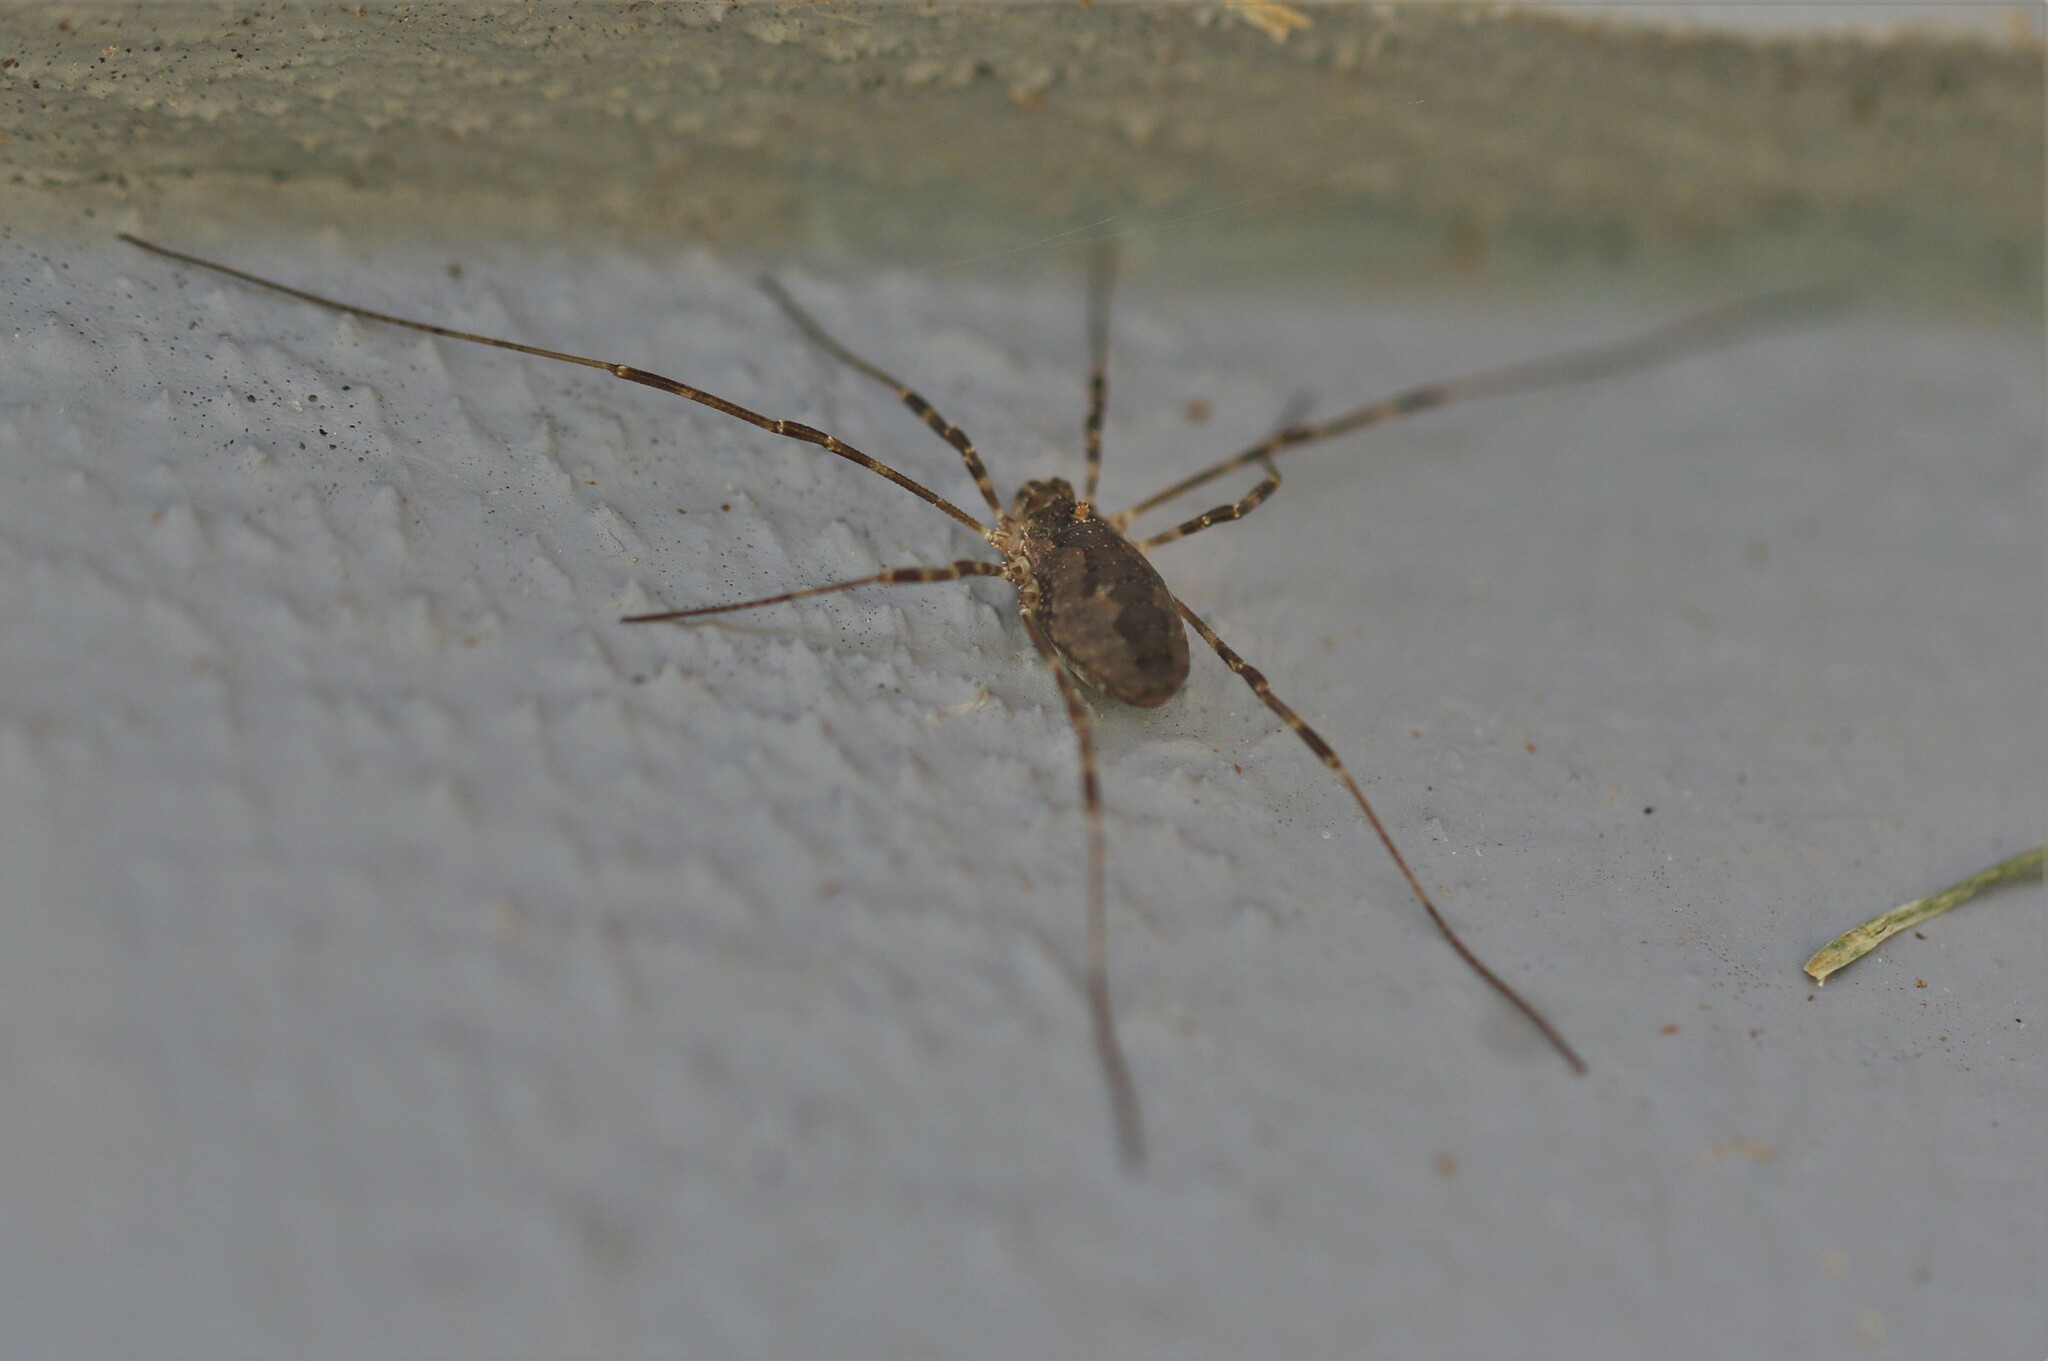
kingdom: Animalia
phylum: Arthropoda
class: Arachnida
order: Opiliones
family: Phalangiidae
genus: Odiellus
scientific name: Odiellus pictus
